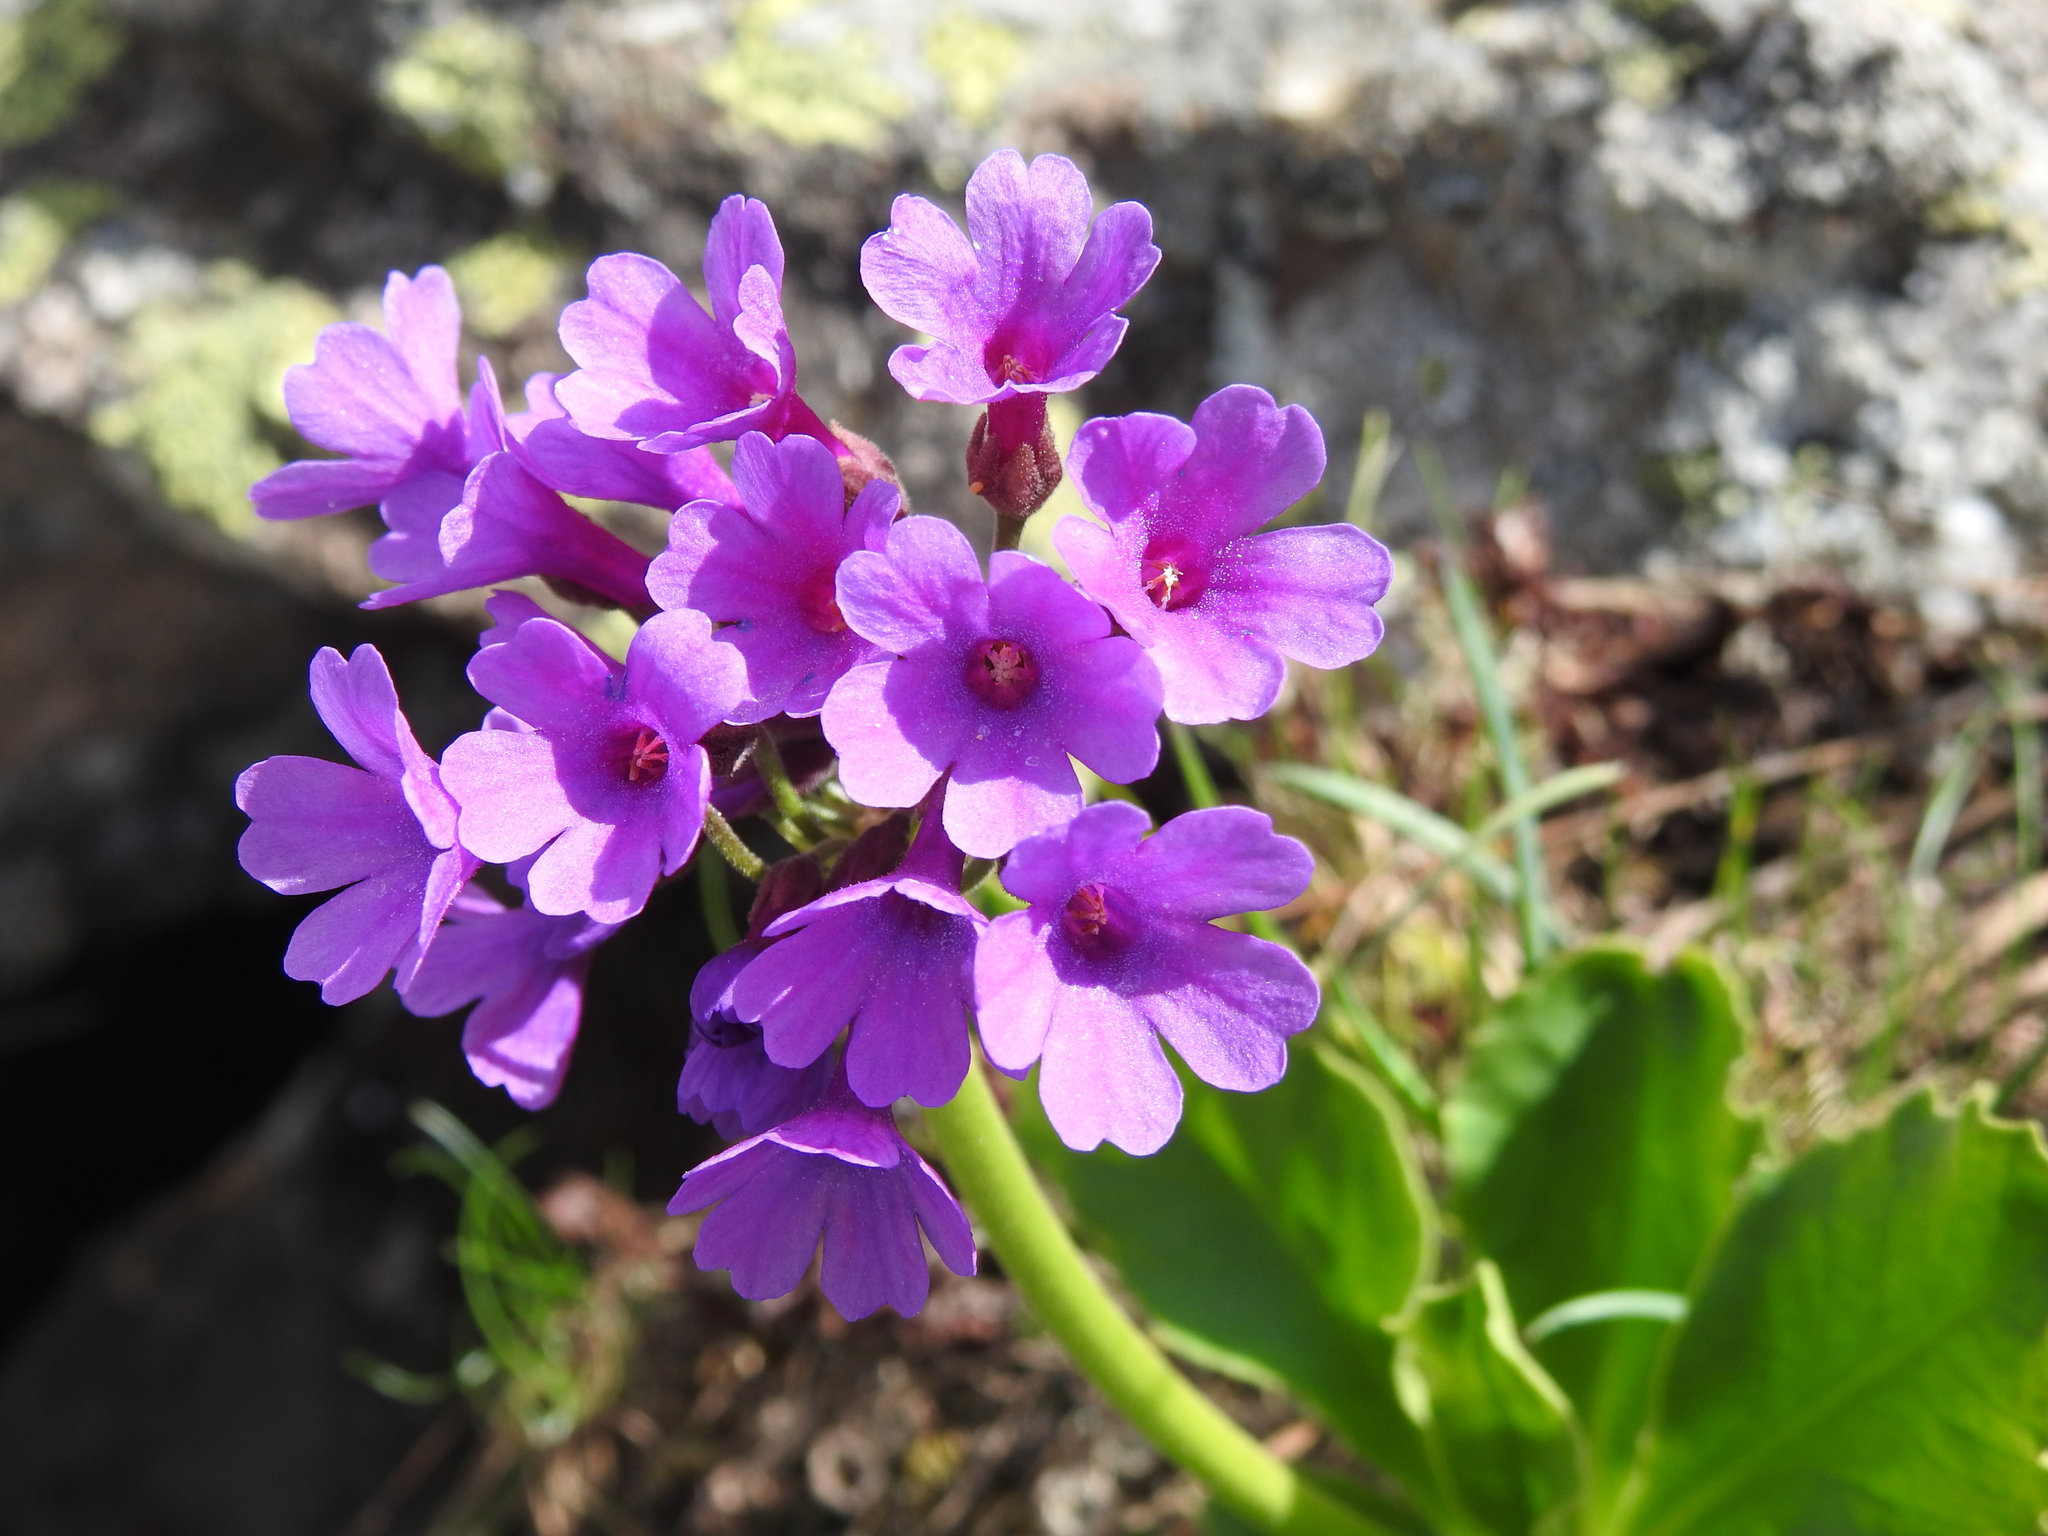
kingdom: Plantae
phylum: Tracheophyta
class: Magnoliopsida
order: Ericales
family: Primulaceae
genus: Primula
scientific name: Primula latifolia
